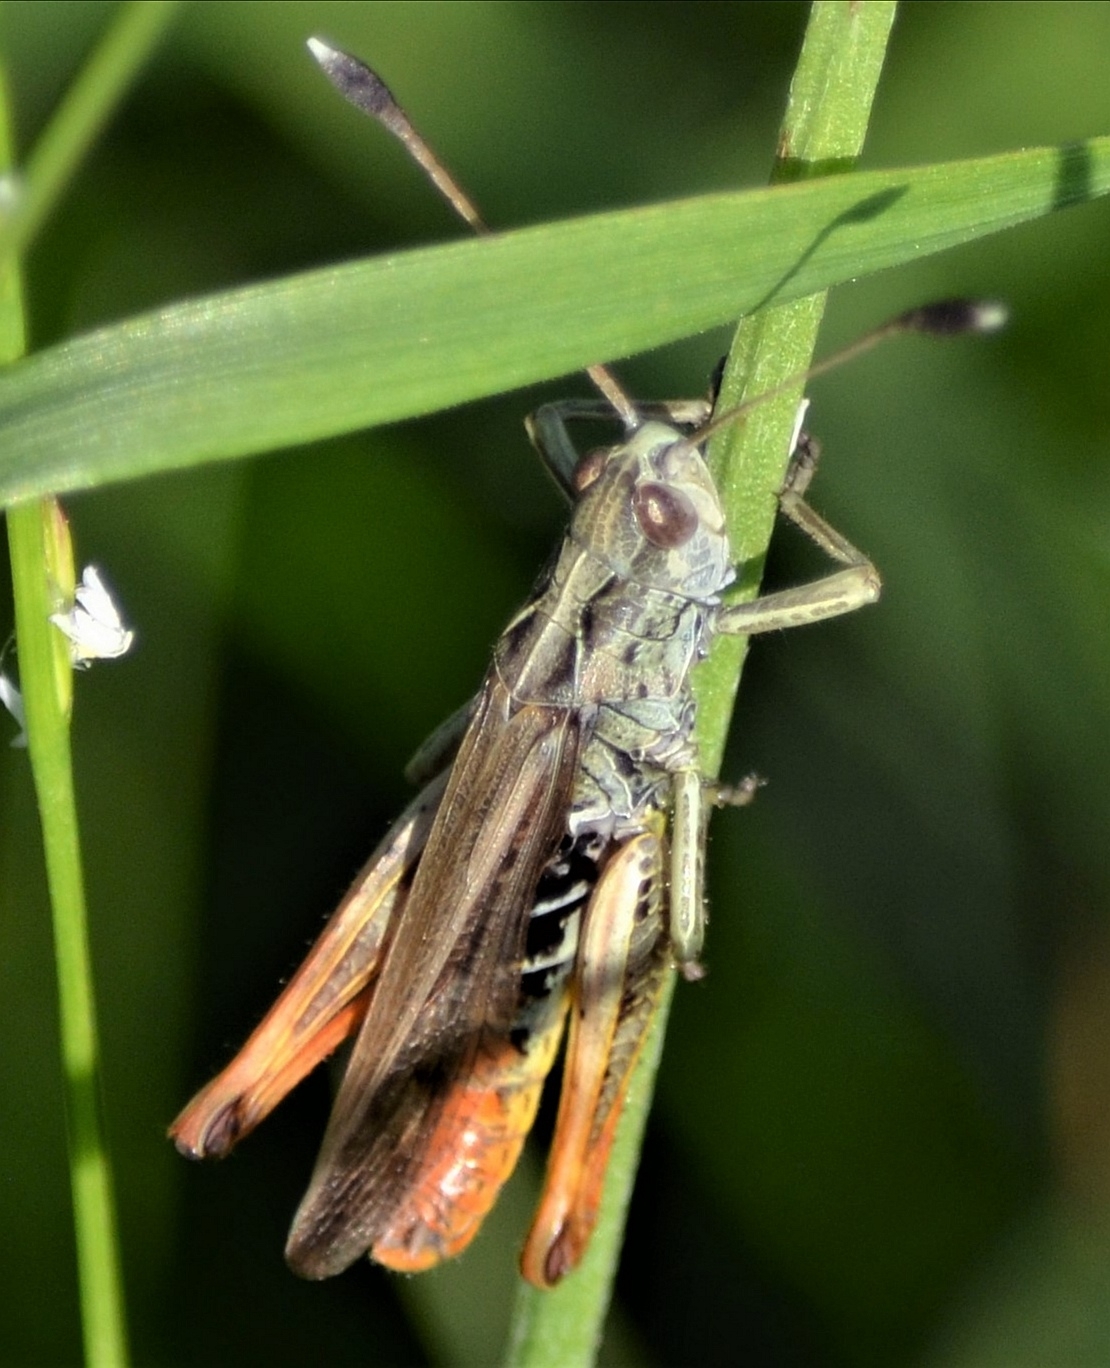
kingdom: Animalia
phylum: Arthropoda
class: Insecta
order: Orthoptera
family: Acrididae
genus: Gomphocerippus
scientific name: Gomphocerippus rufus
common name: Rufous grasshopper
